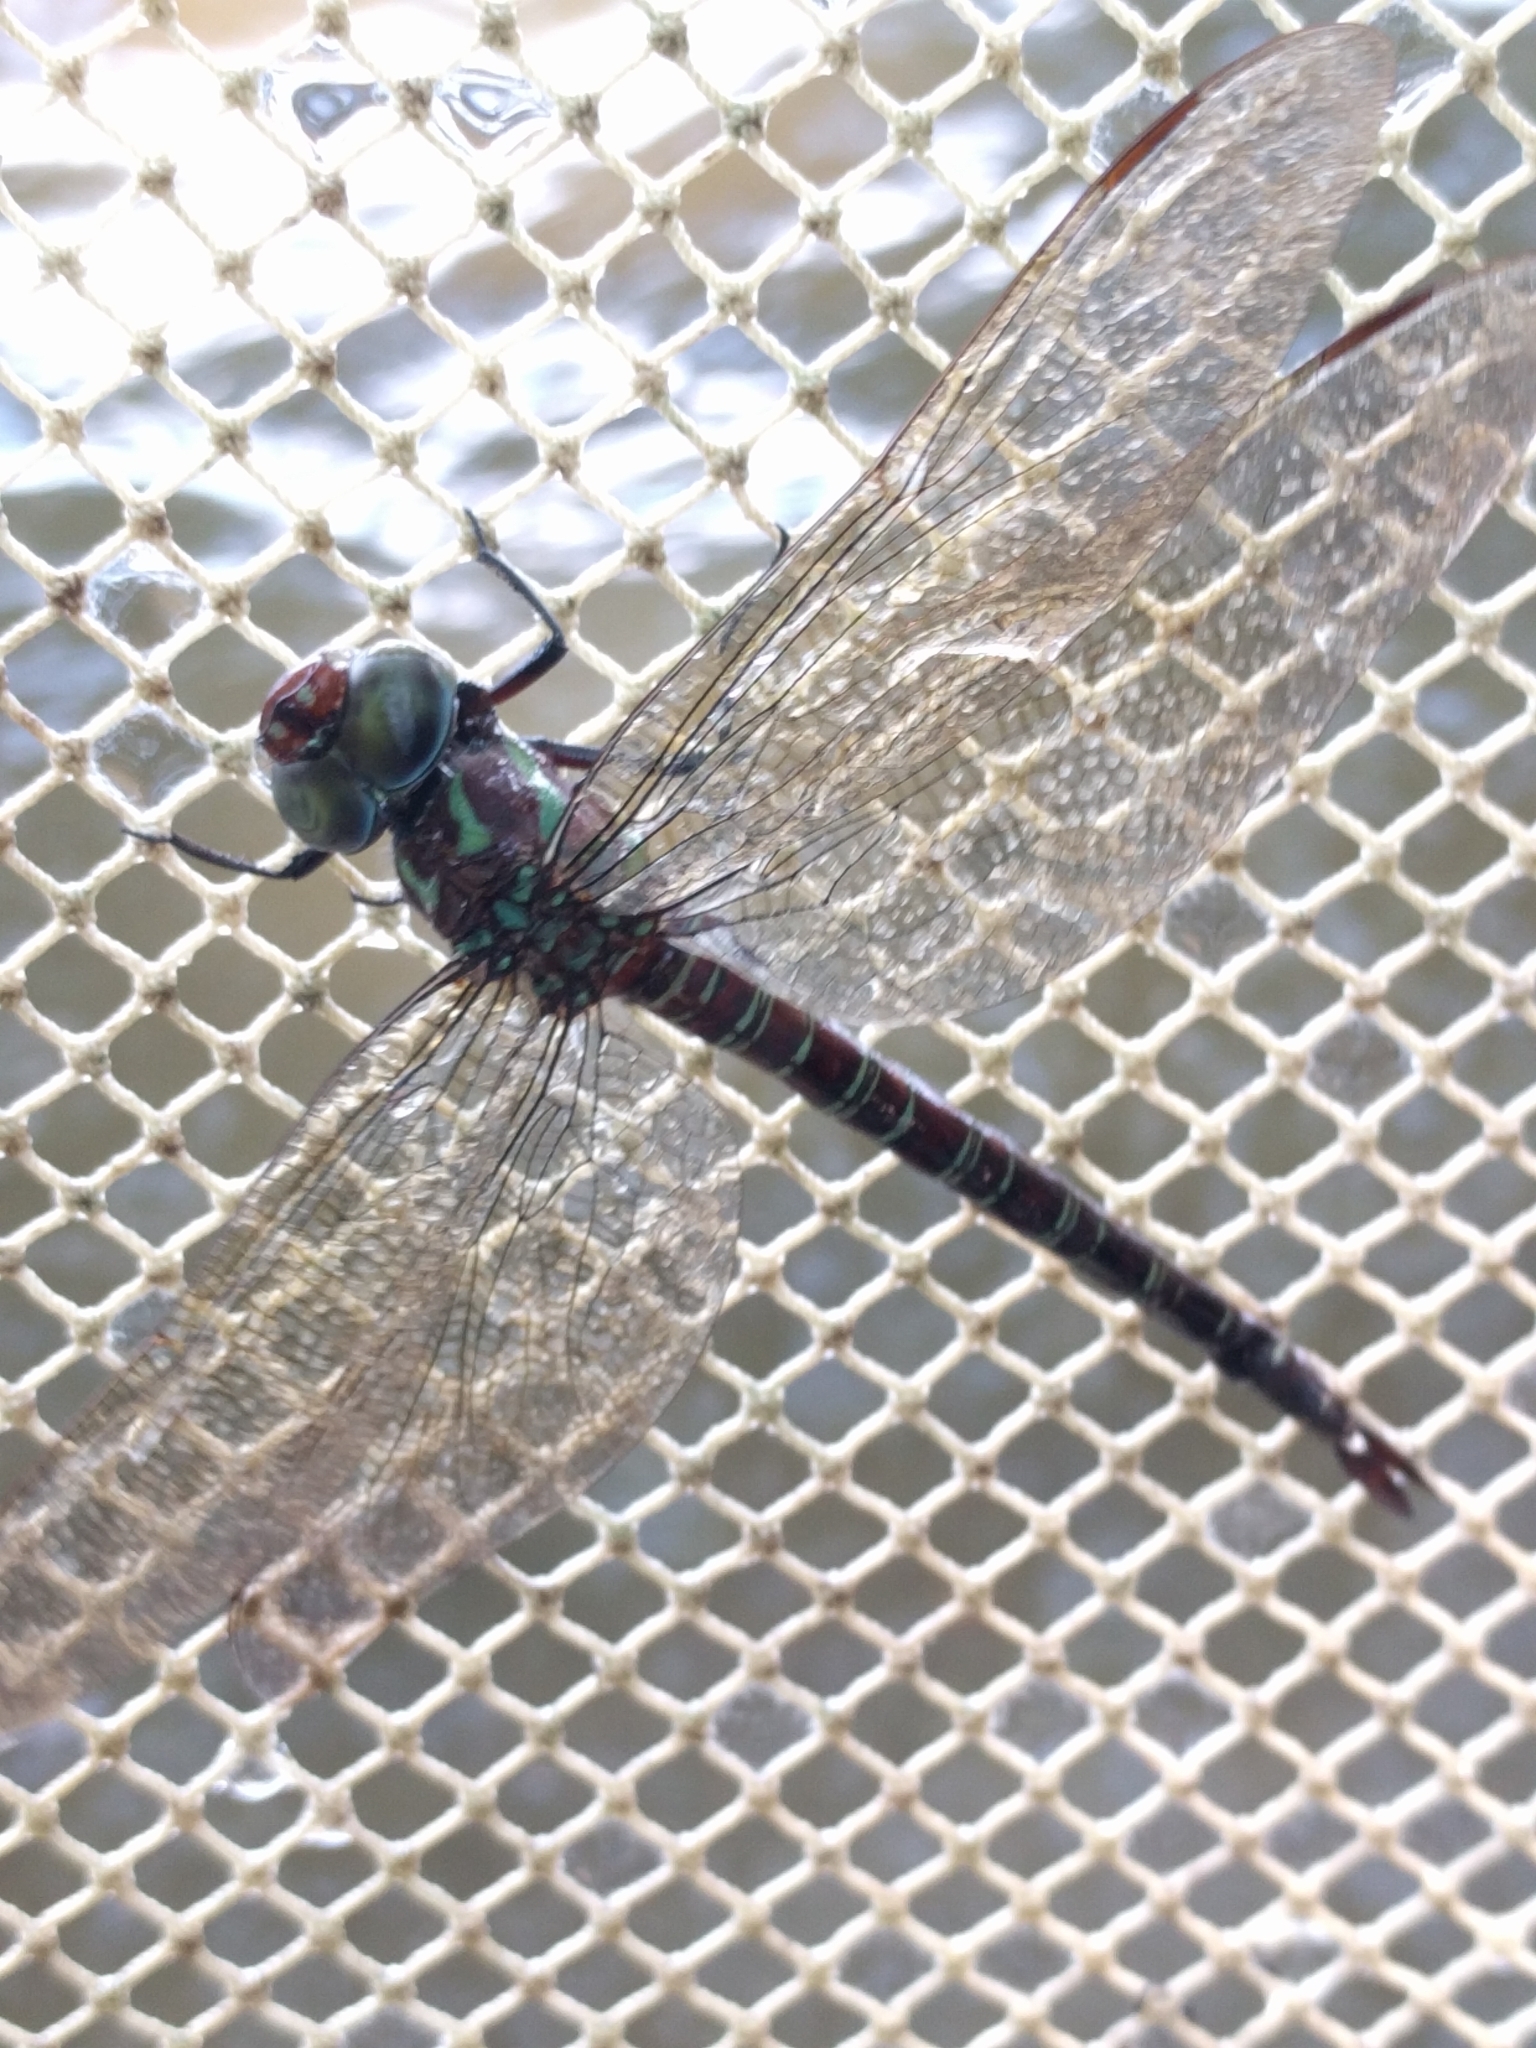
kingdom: Animalia
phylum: Arthropoda
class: Insecta
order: Odonata
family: Aeshnidae
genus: Epiaeschna
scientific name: Epiaeschna heros
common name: Swamp darner
